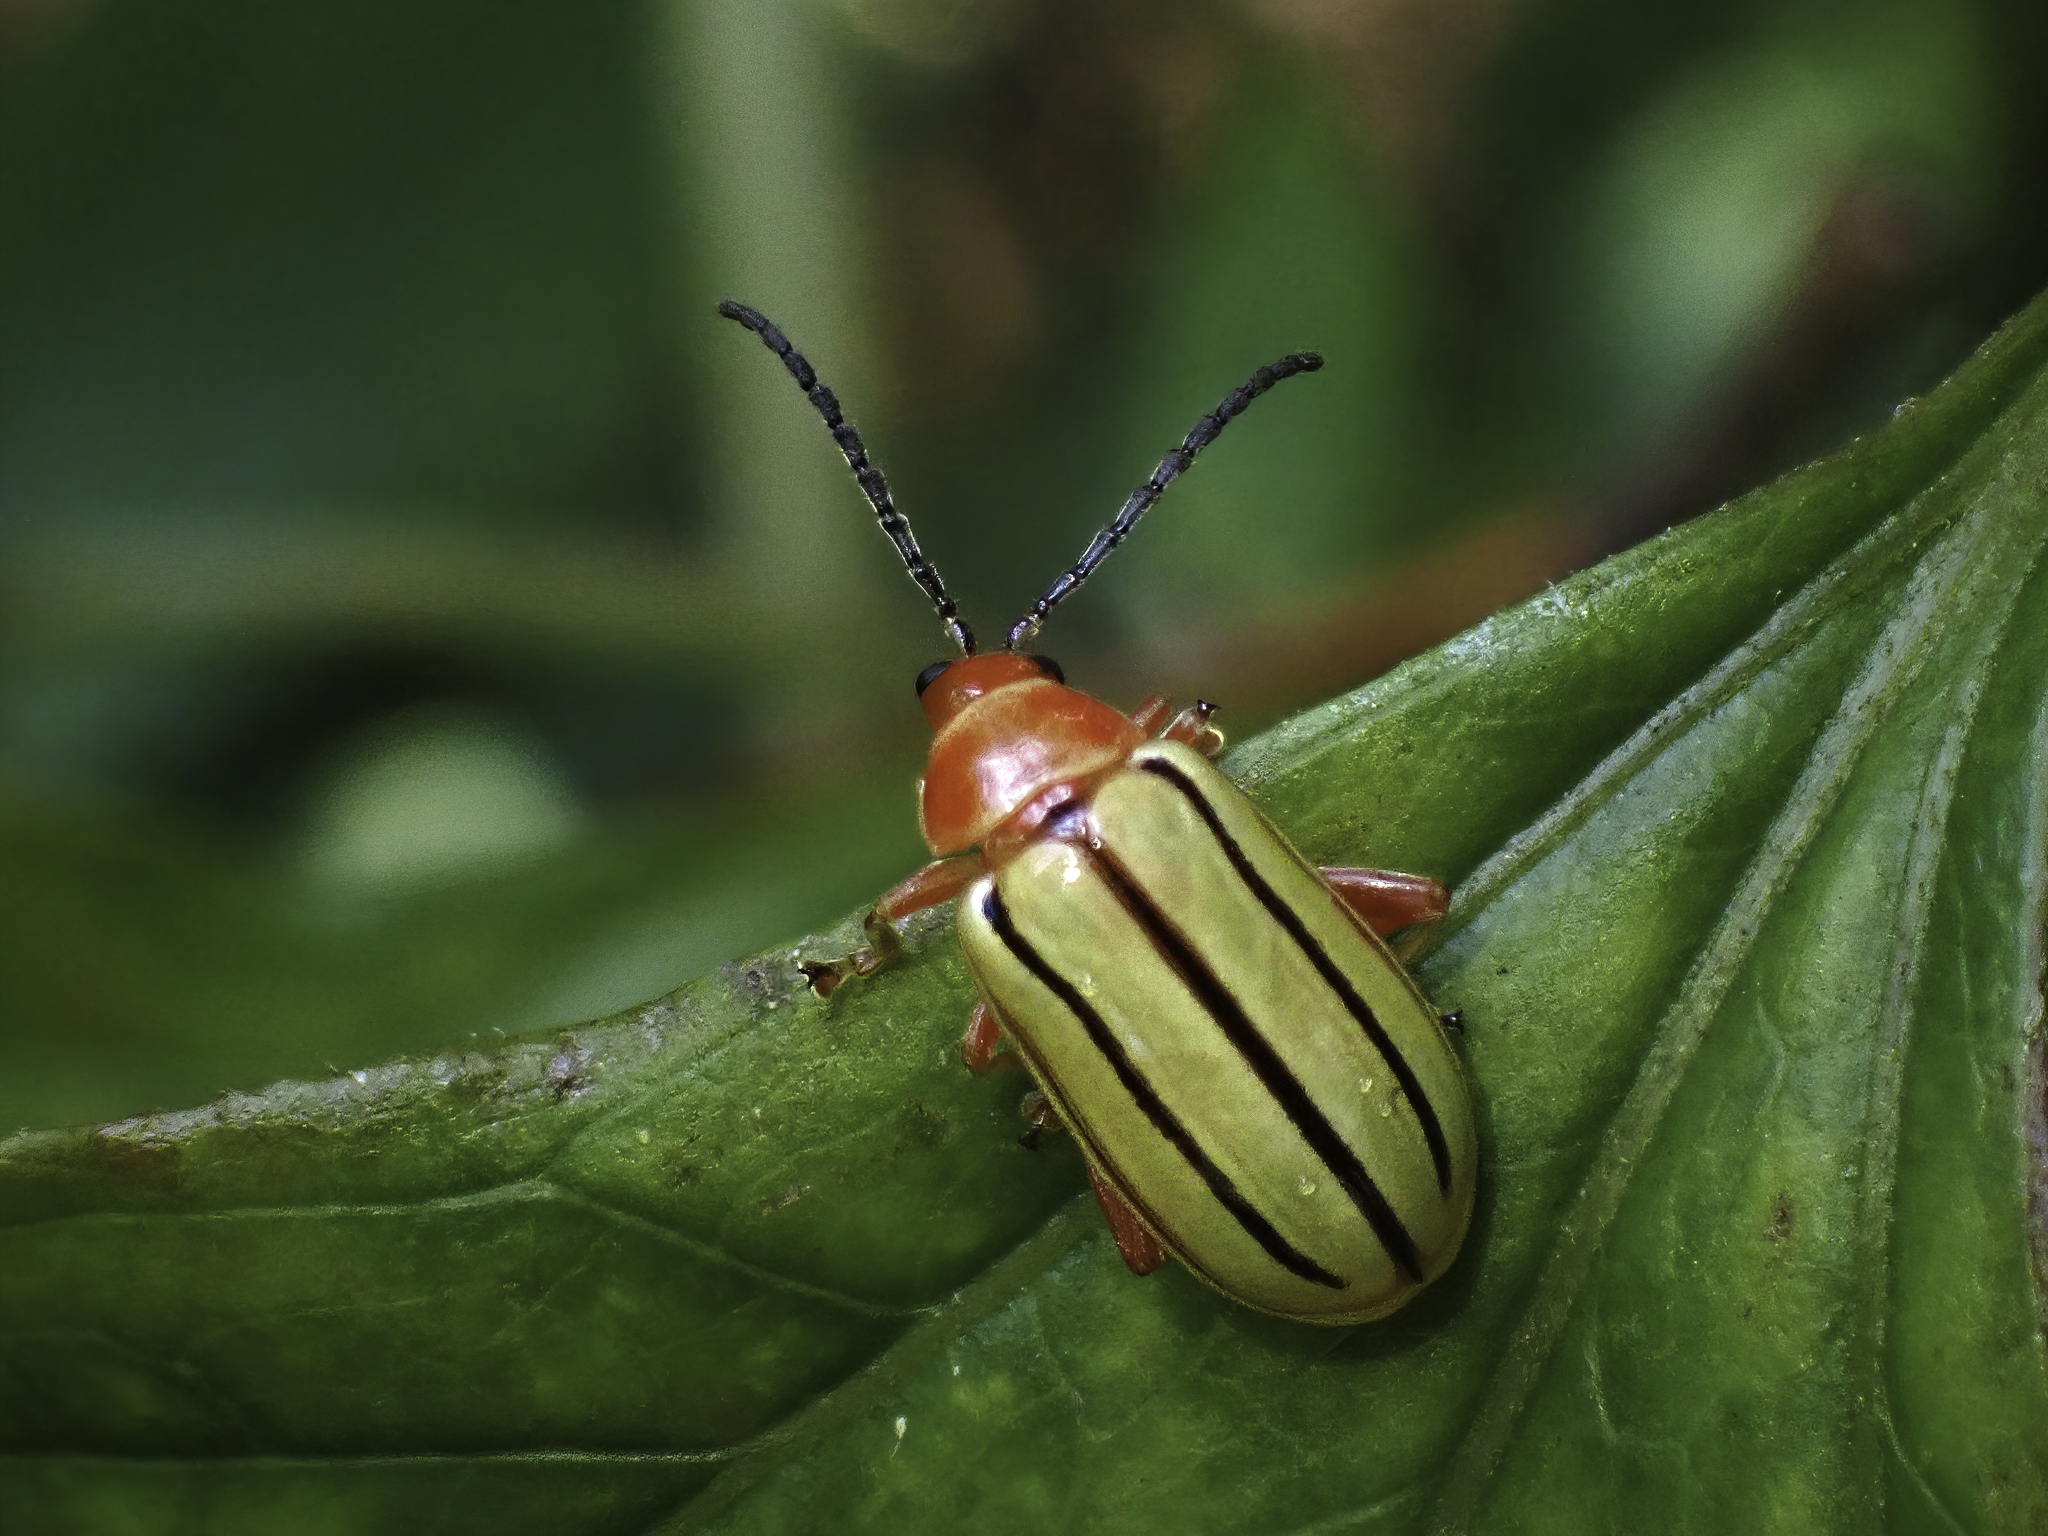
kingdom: Animalia
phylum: Arthropoda
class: Insecta
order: Coleoptera
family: Chrysomelidae
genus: Disonycha
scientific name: Disonycha
